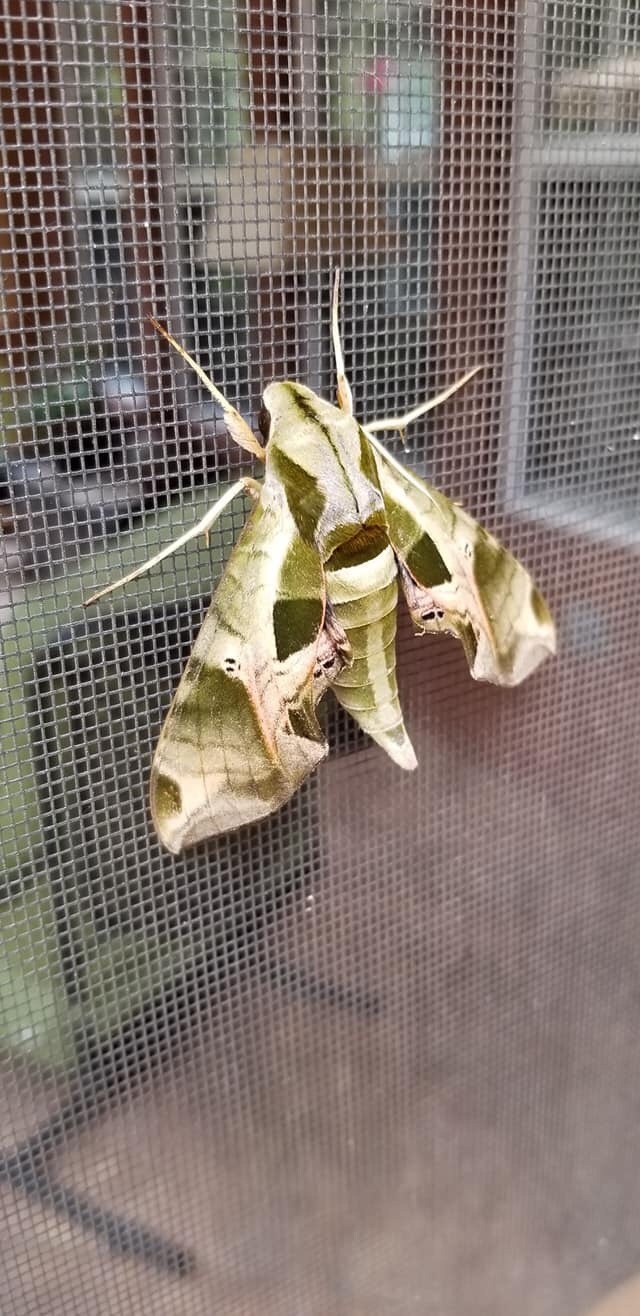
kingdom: Animalia
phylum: Arthropoda
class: Insecta
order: Lepidoptera
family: Sphingidae
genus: Eumorpha
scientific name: Eumorpha pandorus
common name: Pandora sphinx
